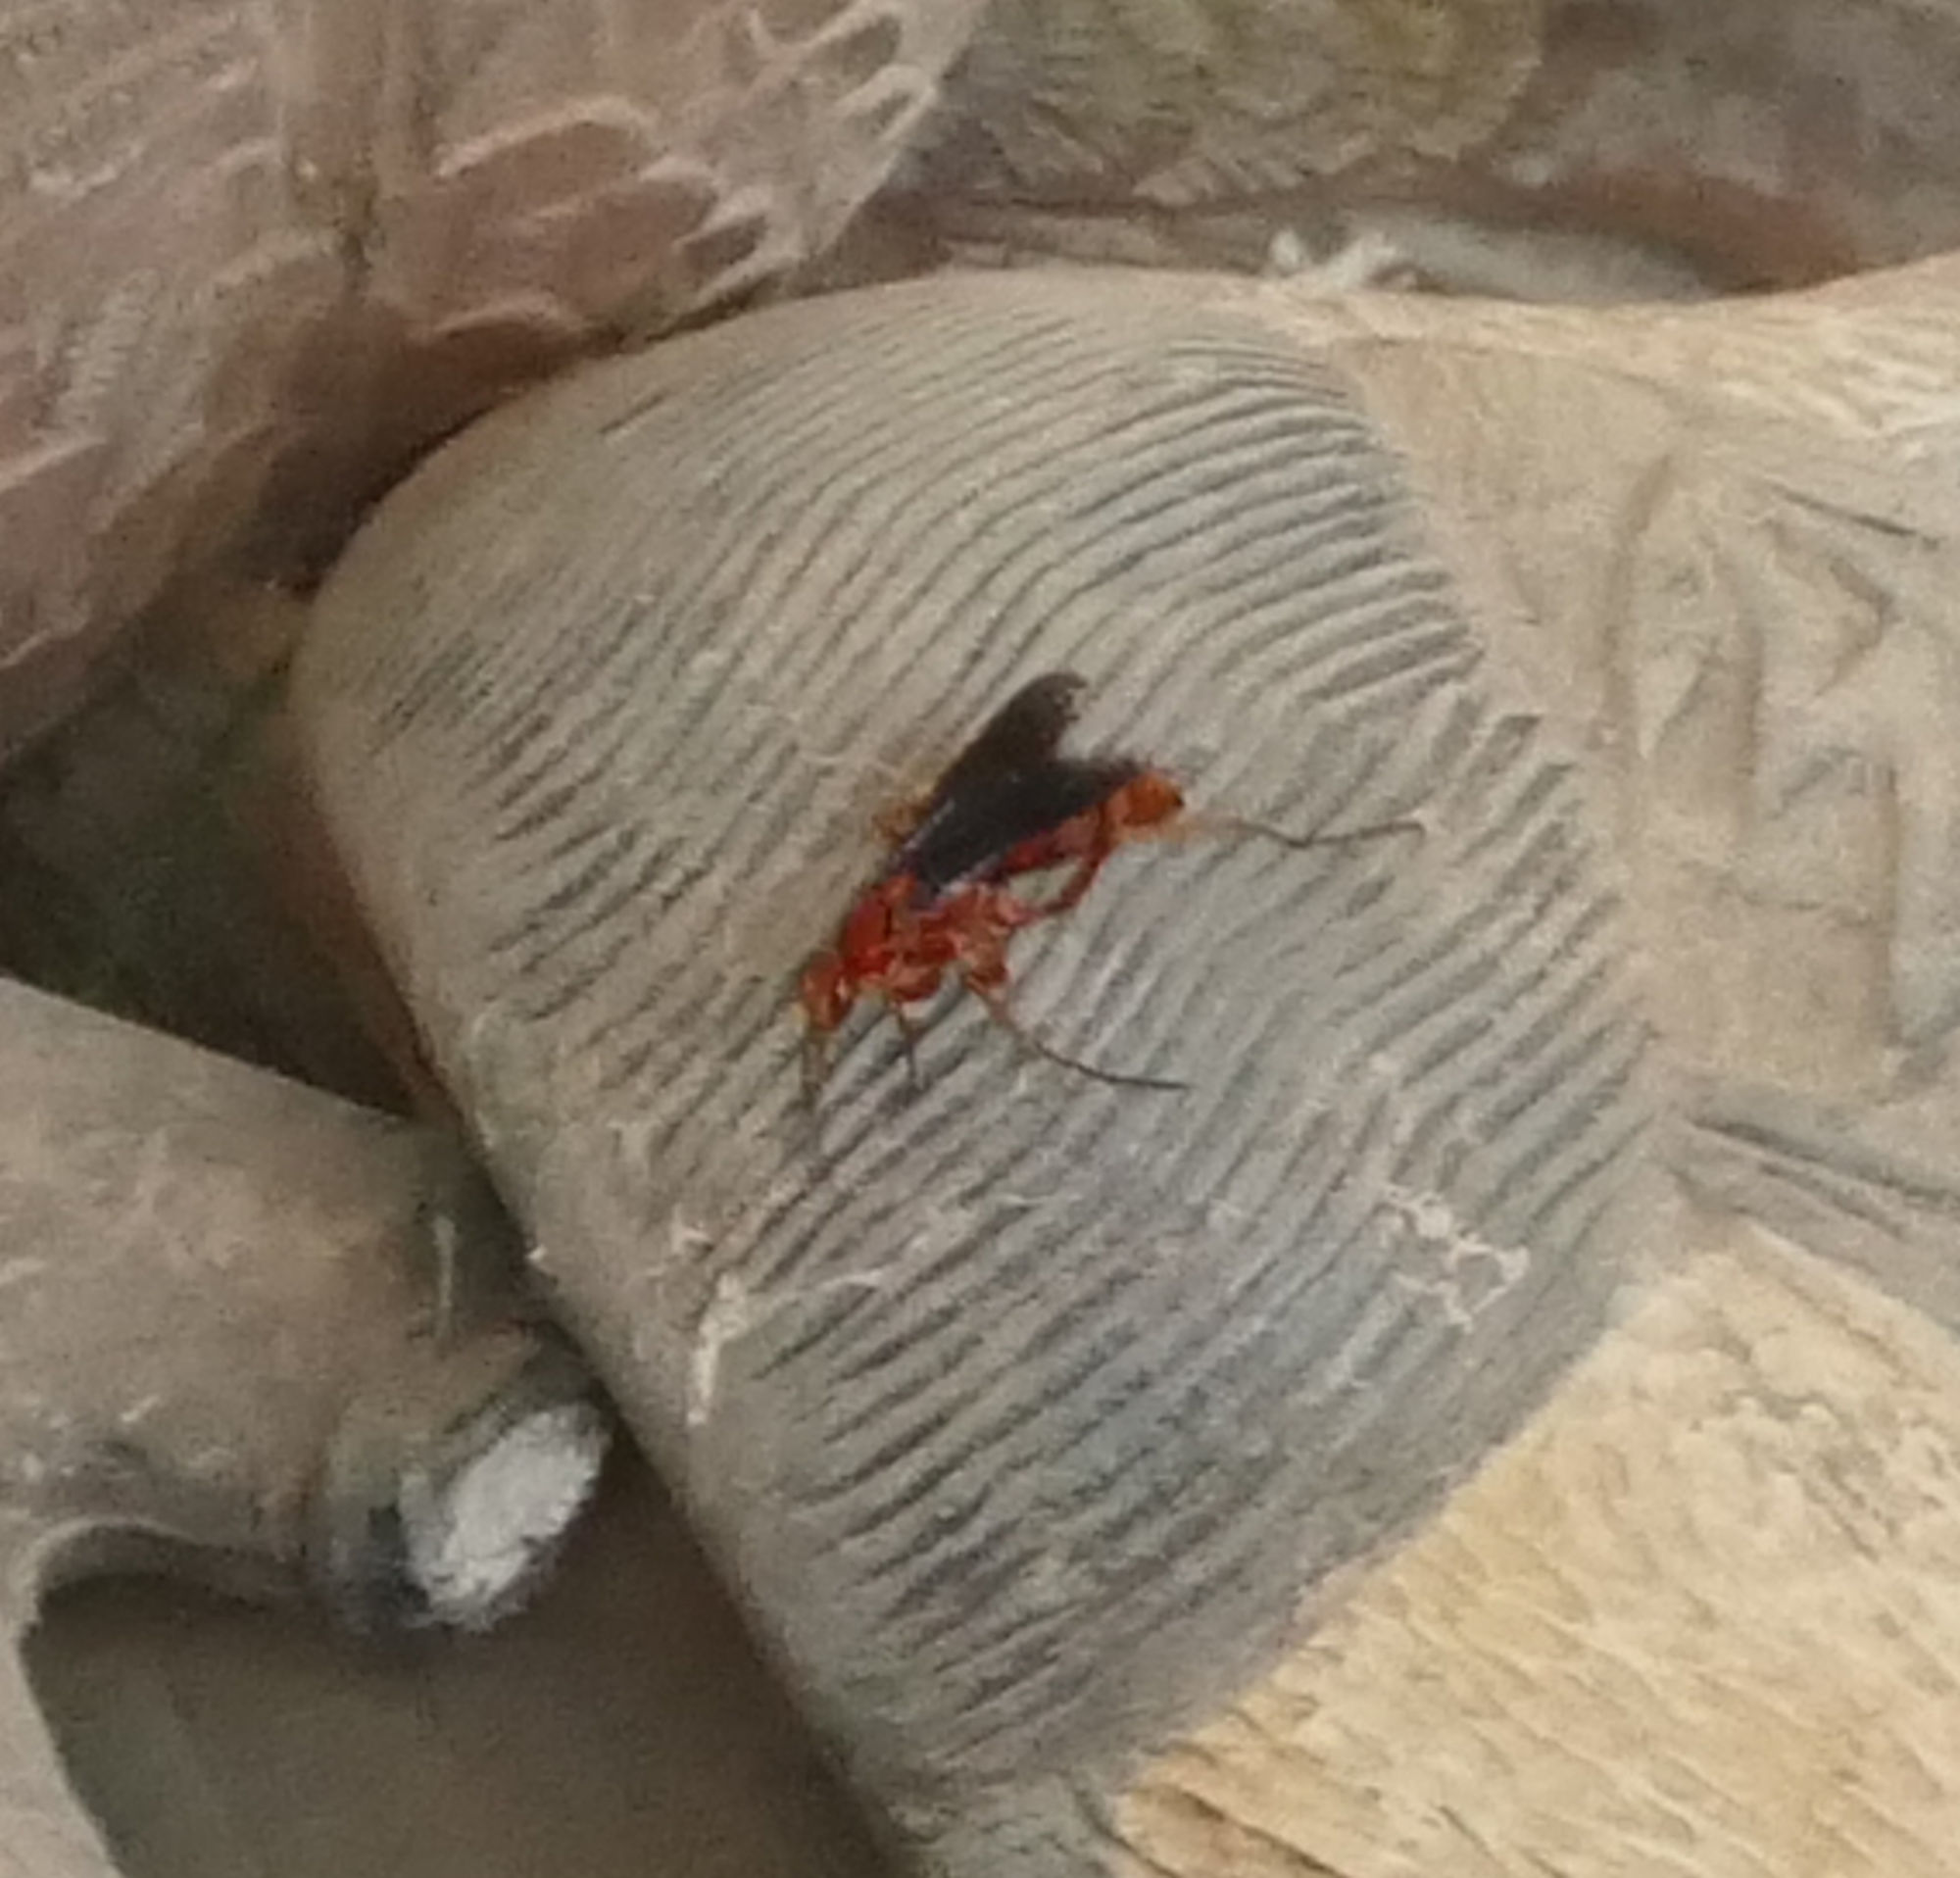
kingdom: Animalia
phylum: Arthropoda
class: Insecta
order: Hymenoptera
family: Pompilidae
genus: Tachypompilus
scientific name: Tachypompilus ferrugineus
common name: Rusty spider wasp
